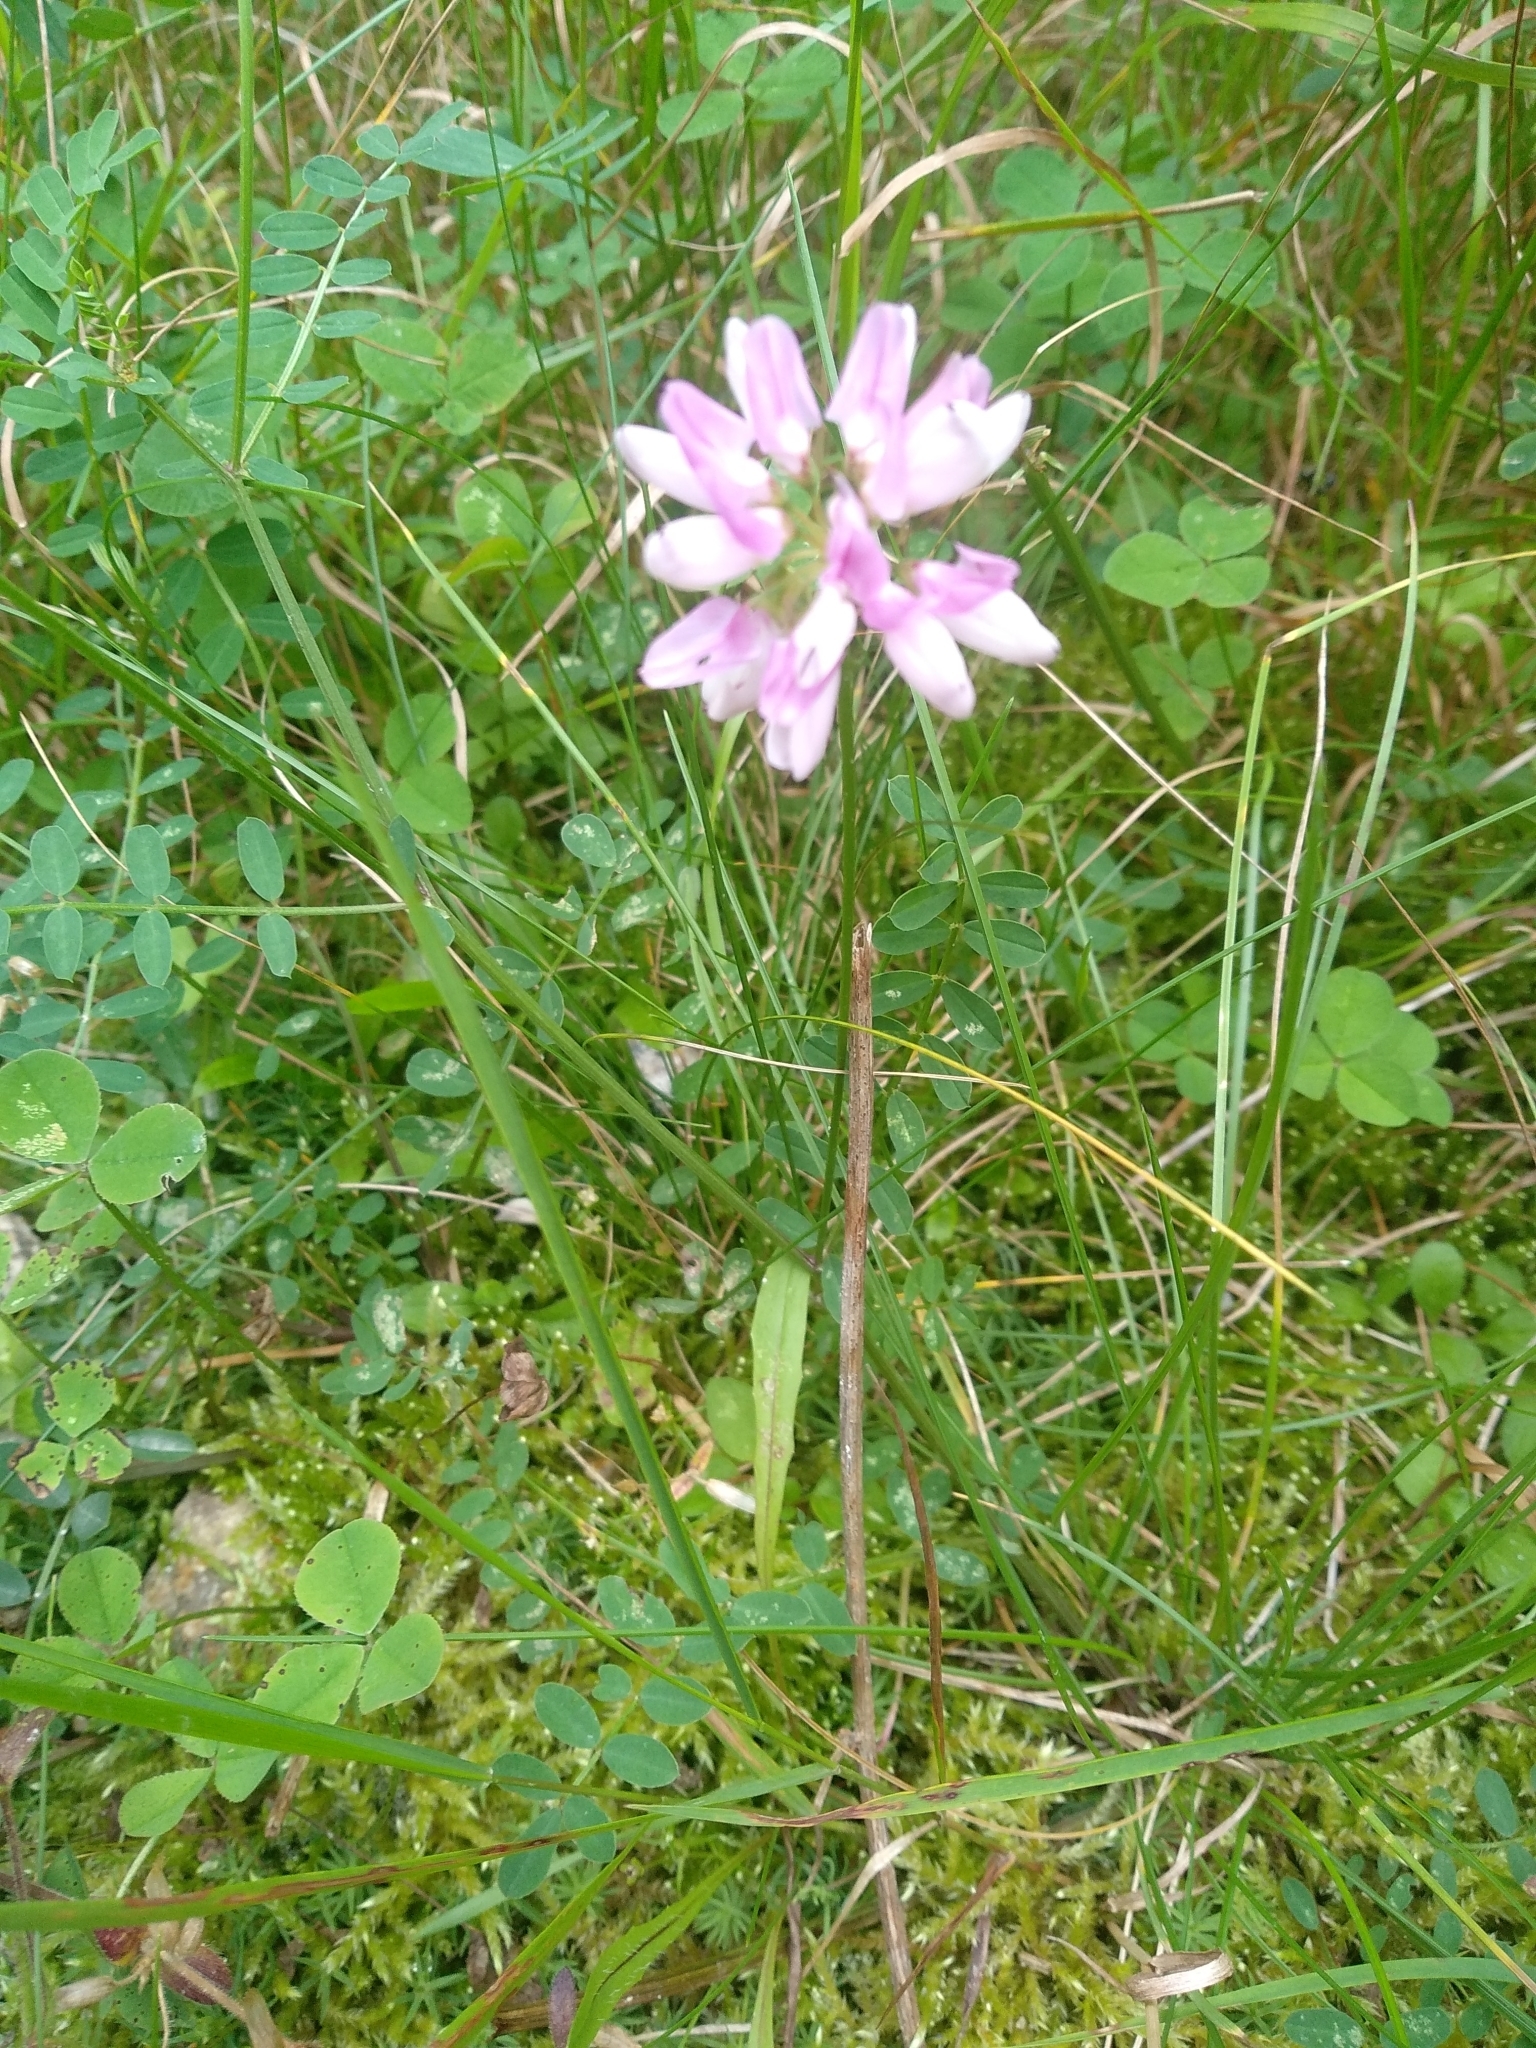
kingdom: Plantae
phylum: Tracheophyta
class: Magnoliopsida
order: Fabales
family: Fabaceae
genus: Coronilla
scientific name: Coronilla varia
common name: Crownvetch
